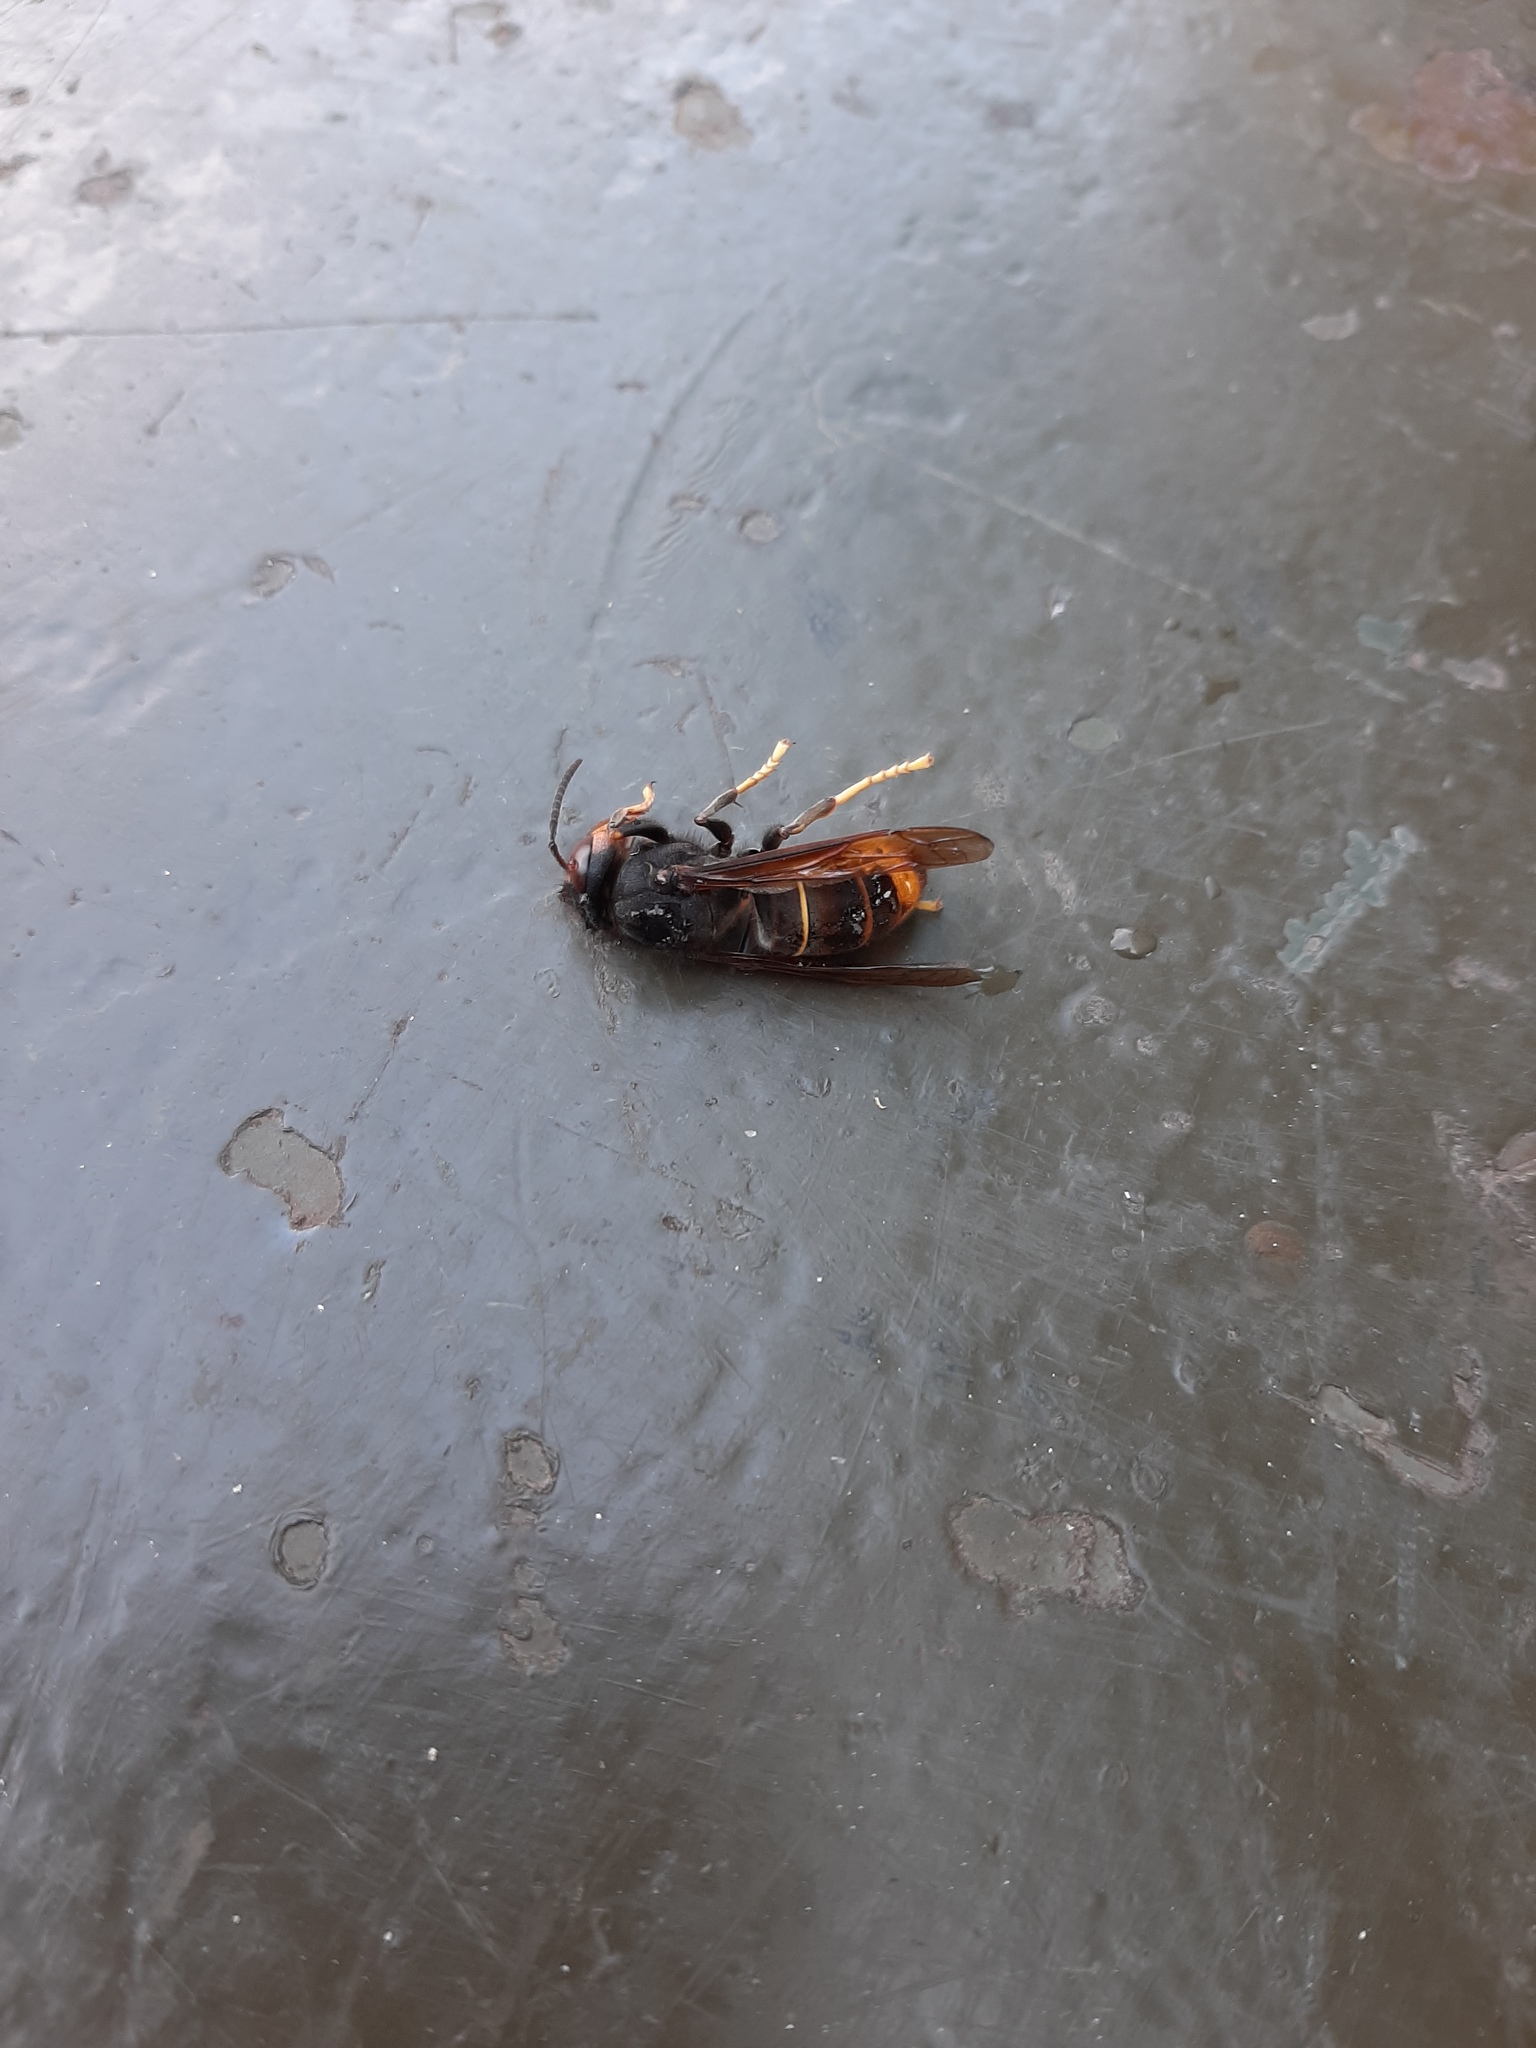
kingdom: Animalia
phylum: Arthropoda
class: Insecta
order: Hymenoptera
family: Vespidae
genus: Vespa
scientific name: Vespa velutina
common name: Asian hornet
